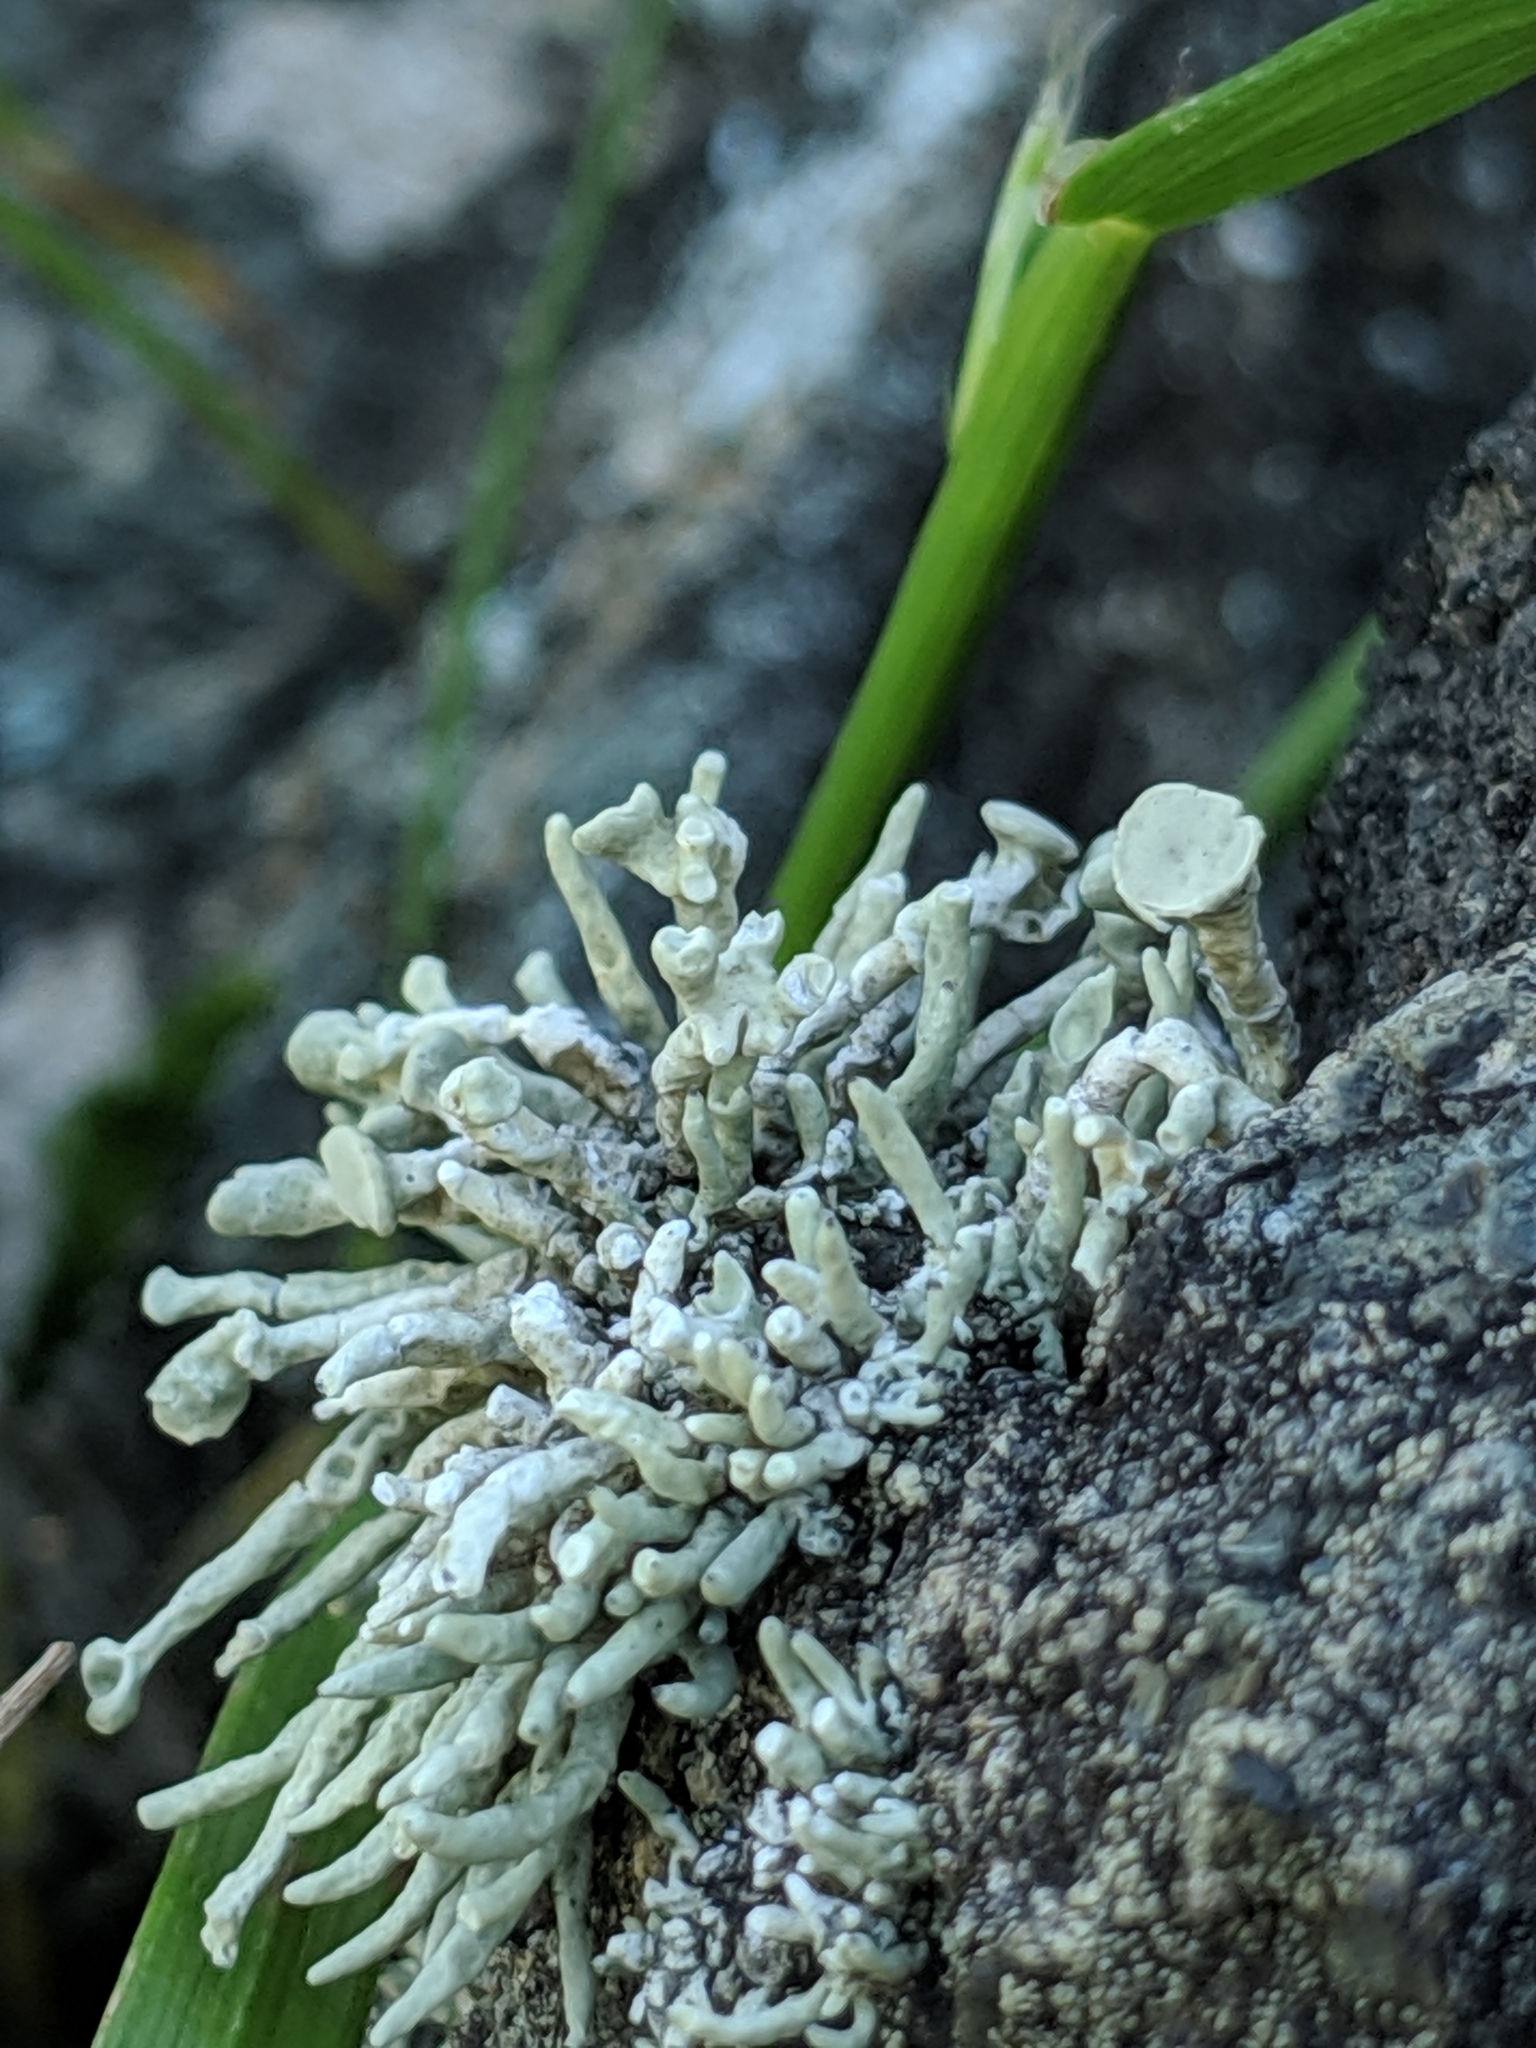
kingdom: Fungi
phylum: Ascomycota
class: Lecanoromycetes
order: Lecanorales
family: Ramalinaceae
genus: Niebla
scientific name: Niebla combeoides
